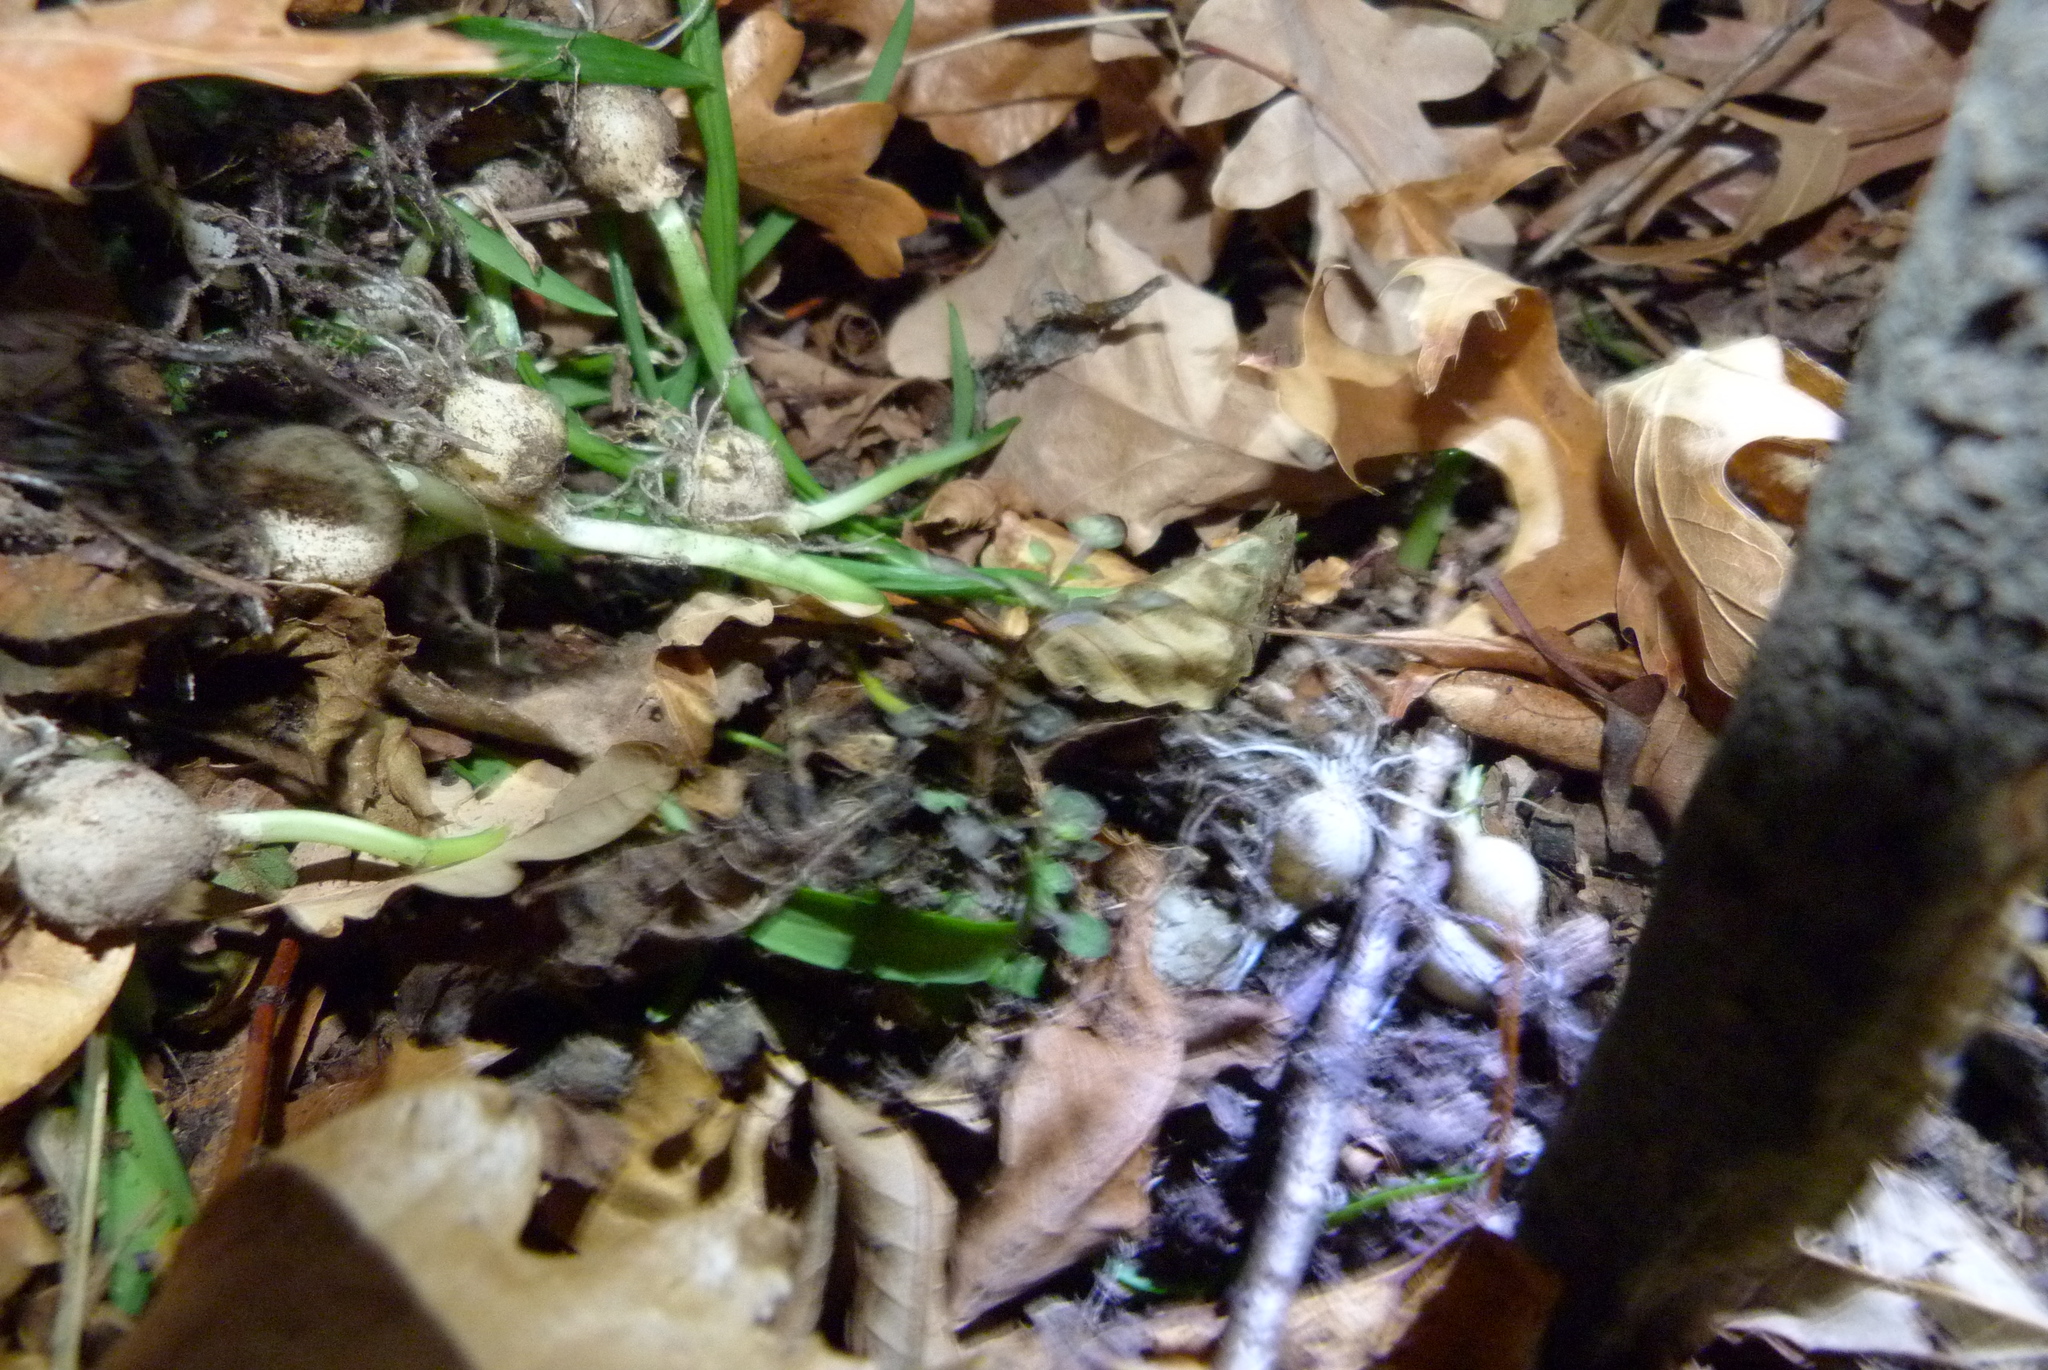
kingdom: Plantae
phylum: Tracheophyta
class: Liliopsida
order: Asparagales
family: Amaryllidaceae
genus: Allium
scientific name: Allium triquetrum
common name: Three-cornered garlic
